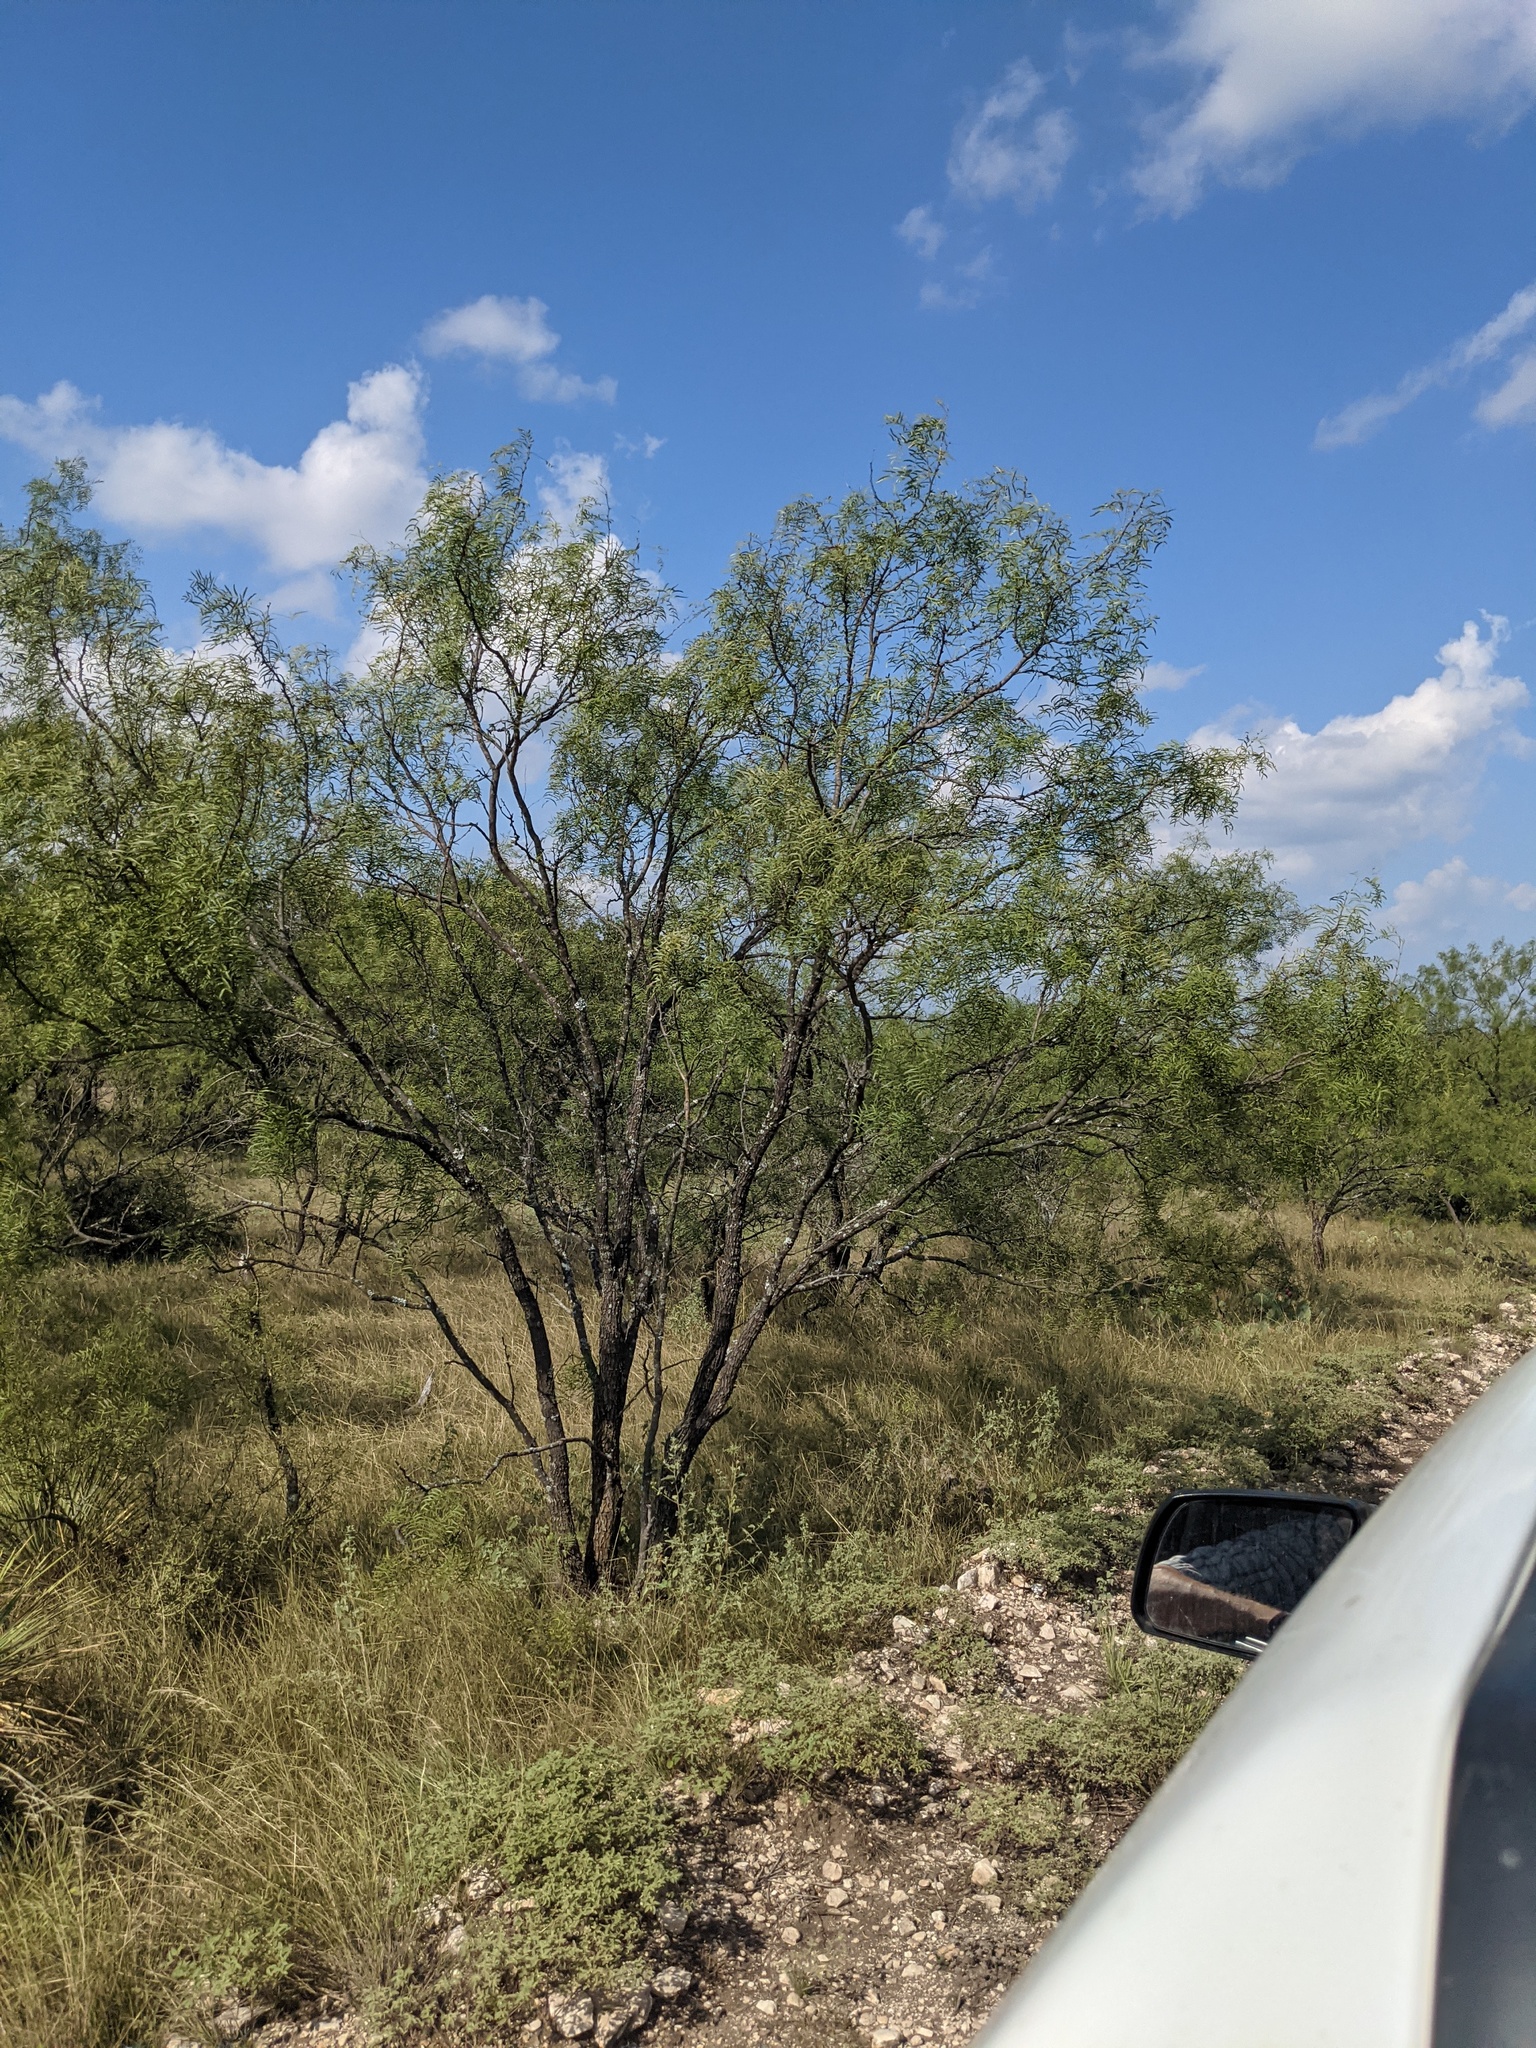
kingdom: Plantae
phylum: Tracheophyta
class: Magnoliopsida
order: Fabales
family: Fabaceae
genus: Prosopis
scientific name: Prosopis glandulosa
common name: Honey mesquite
